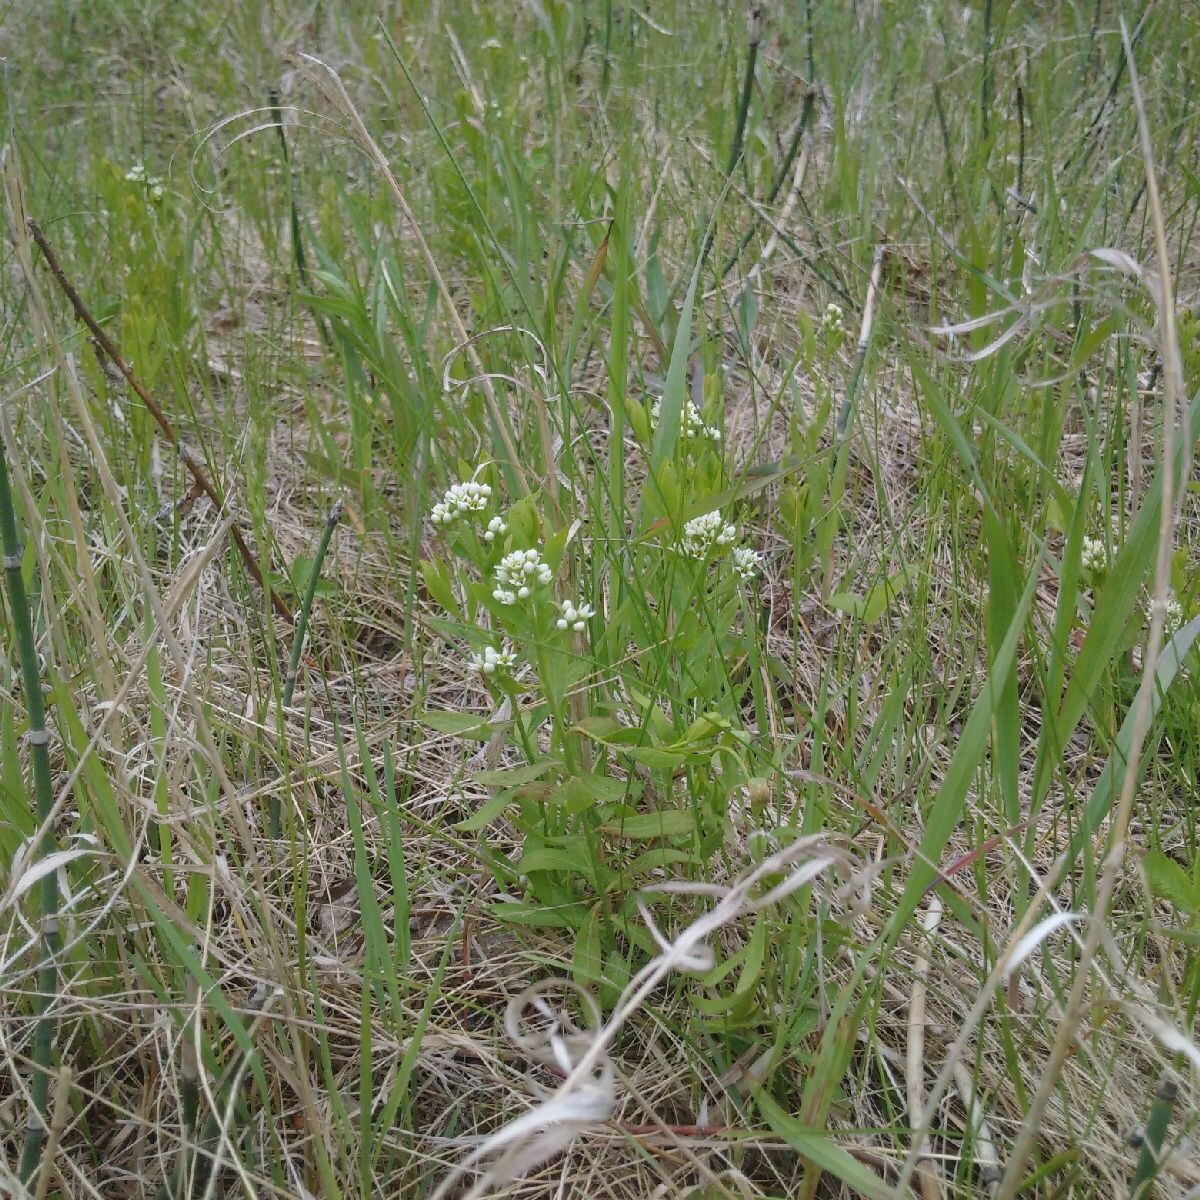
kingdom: Plantae
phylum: Tracheophyta
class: Magnoliopsida
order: Santalales
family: Comandraceae
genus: Comandra
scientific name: Comandra umbellata
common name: Bastard toadflax
